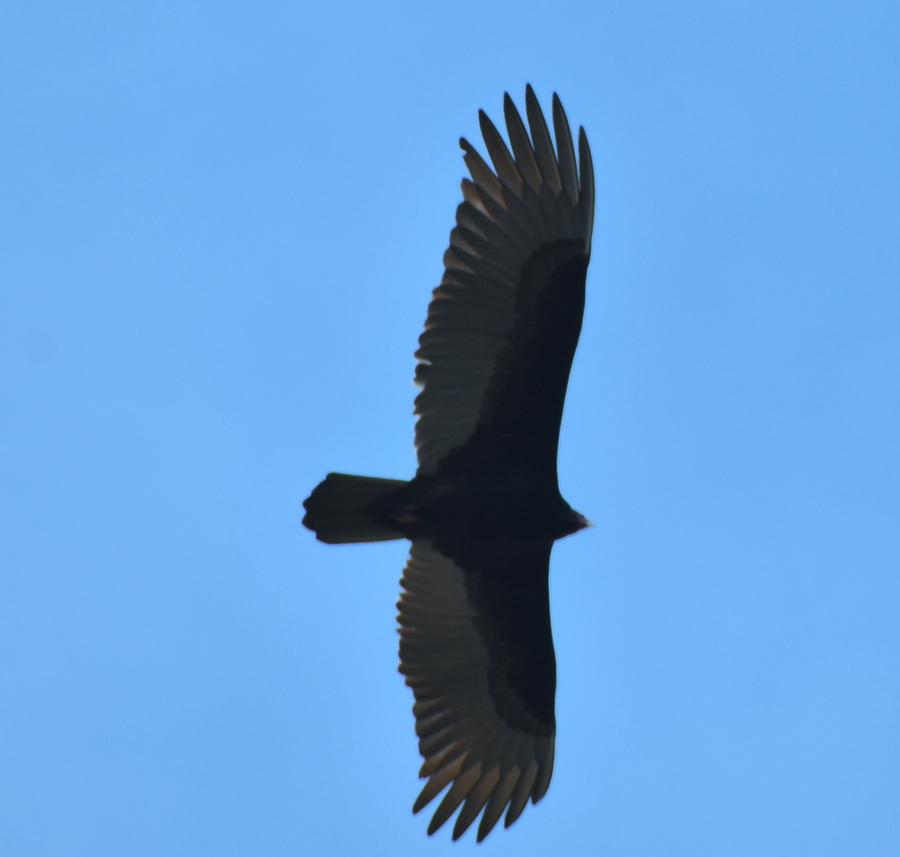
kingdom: Animalia
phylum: Chordata
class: Aves
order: Accipitriformes
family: Cathartidae
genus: Cathartes
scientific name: Cathartes aura
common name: Turkey vulture
